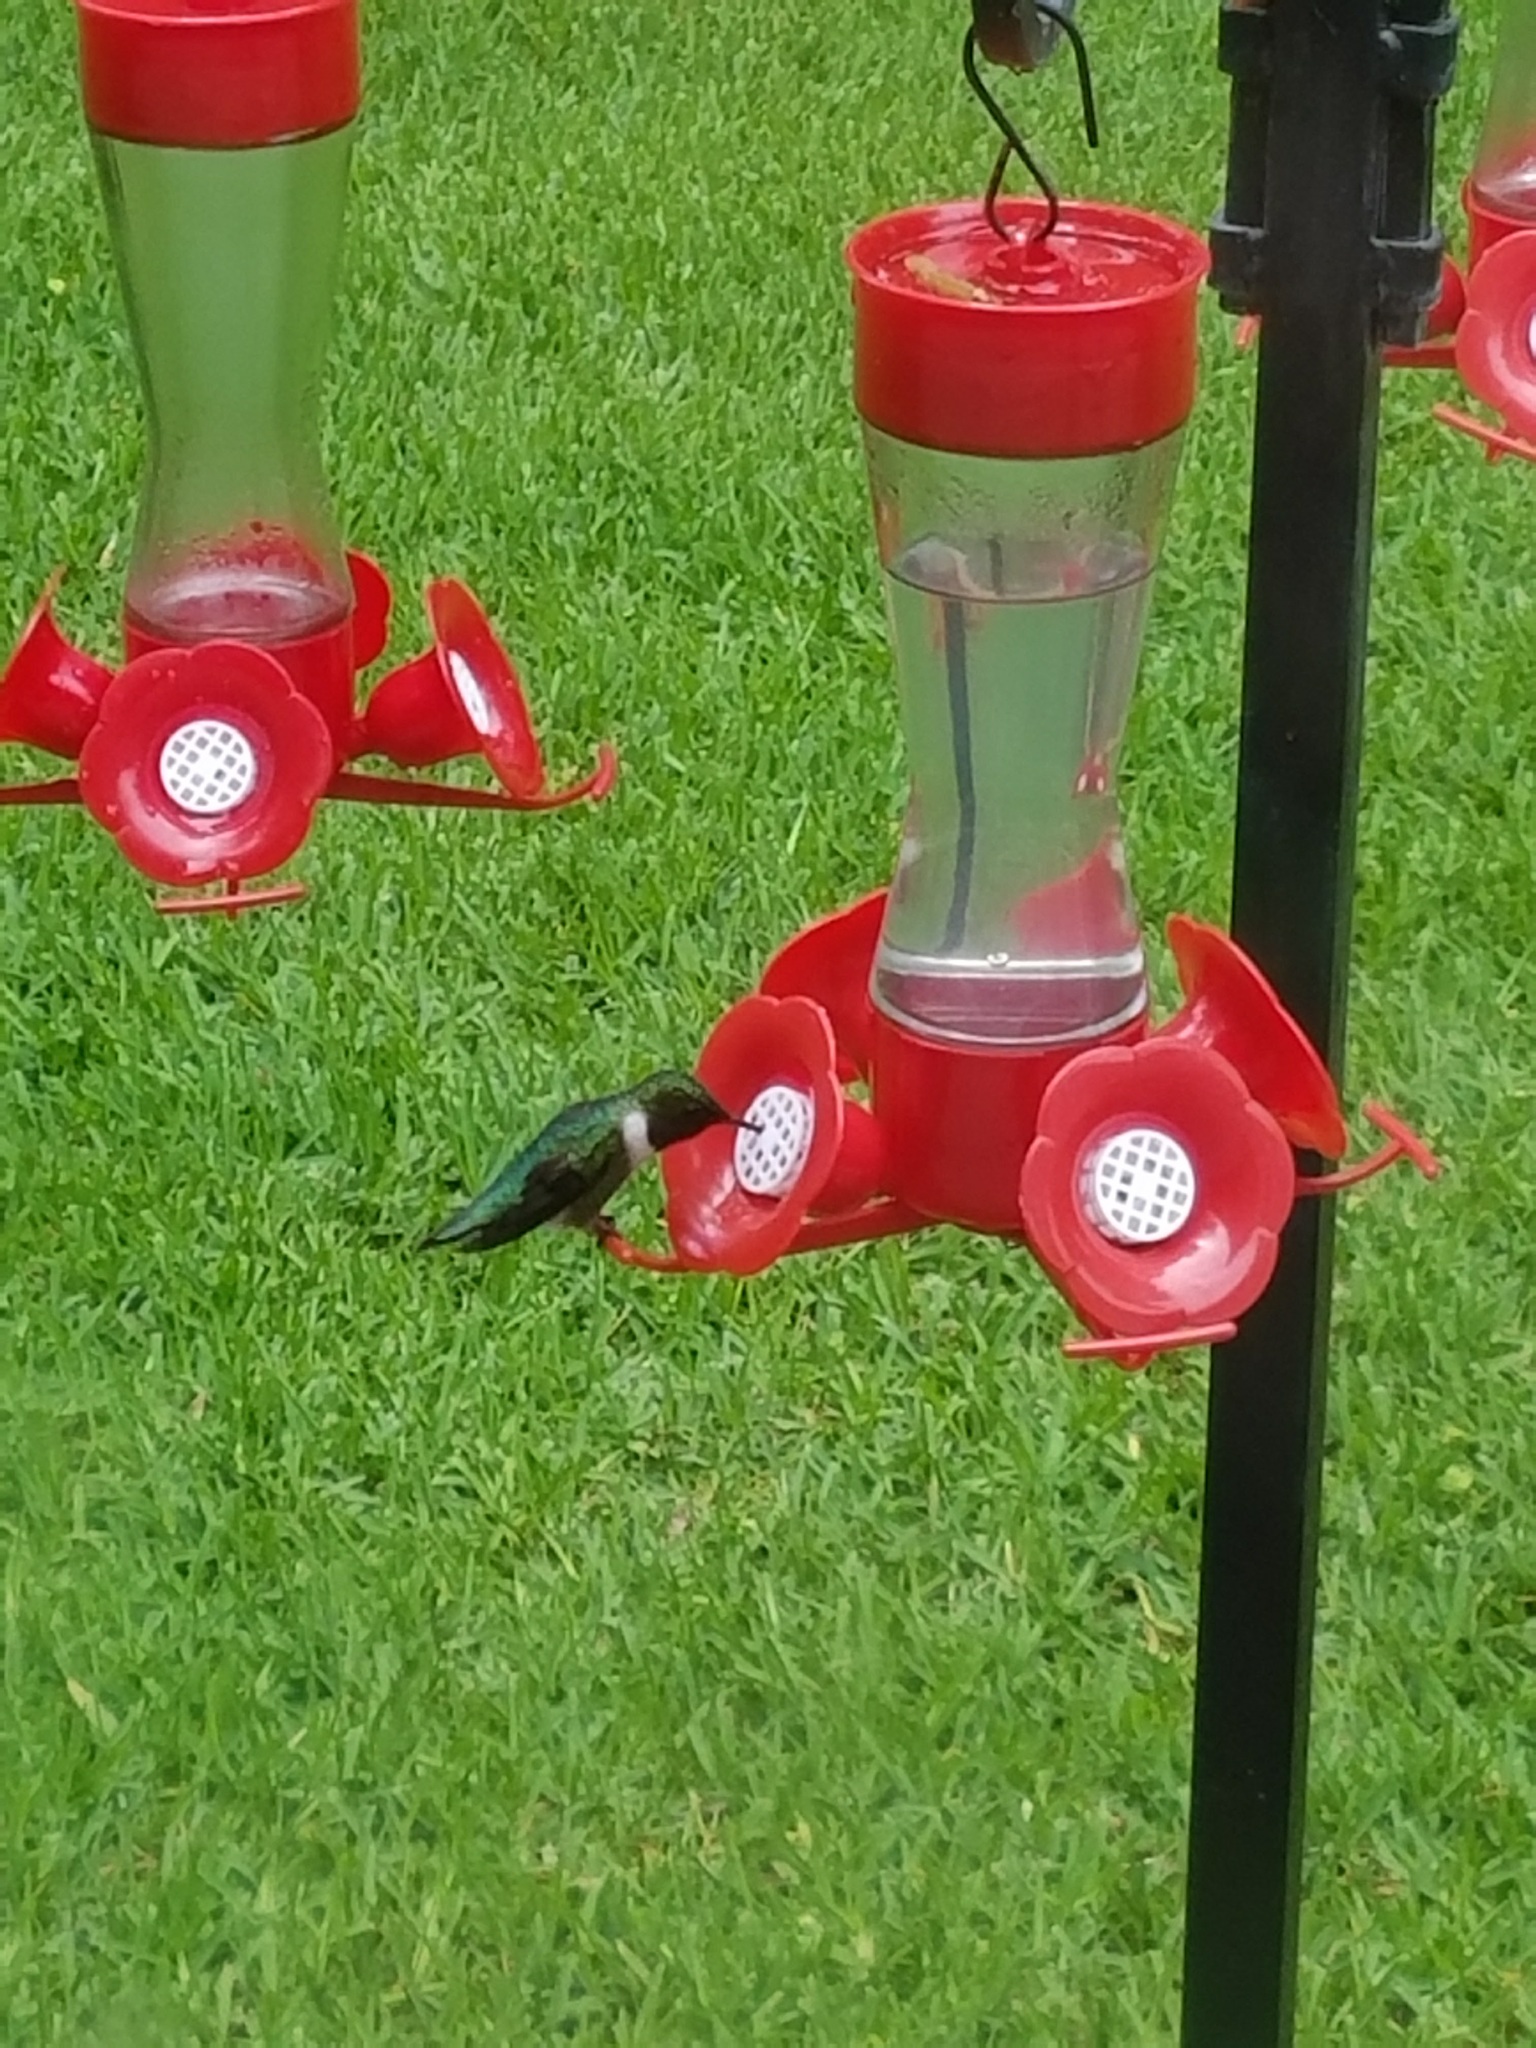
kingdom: Animalia
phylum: Chordata
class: Aves
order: Apodiformes
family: Trochilidae
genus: Archilochus
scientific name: Archilochus colubris
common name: Ruby-throated hummingbird
